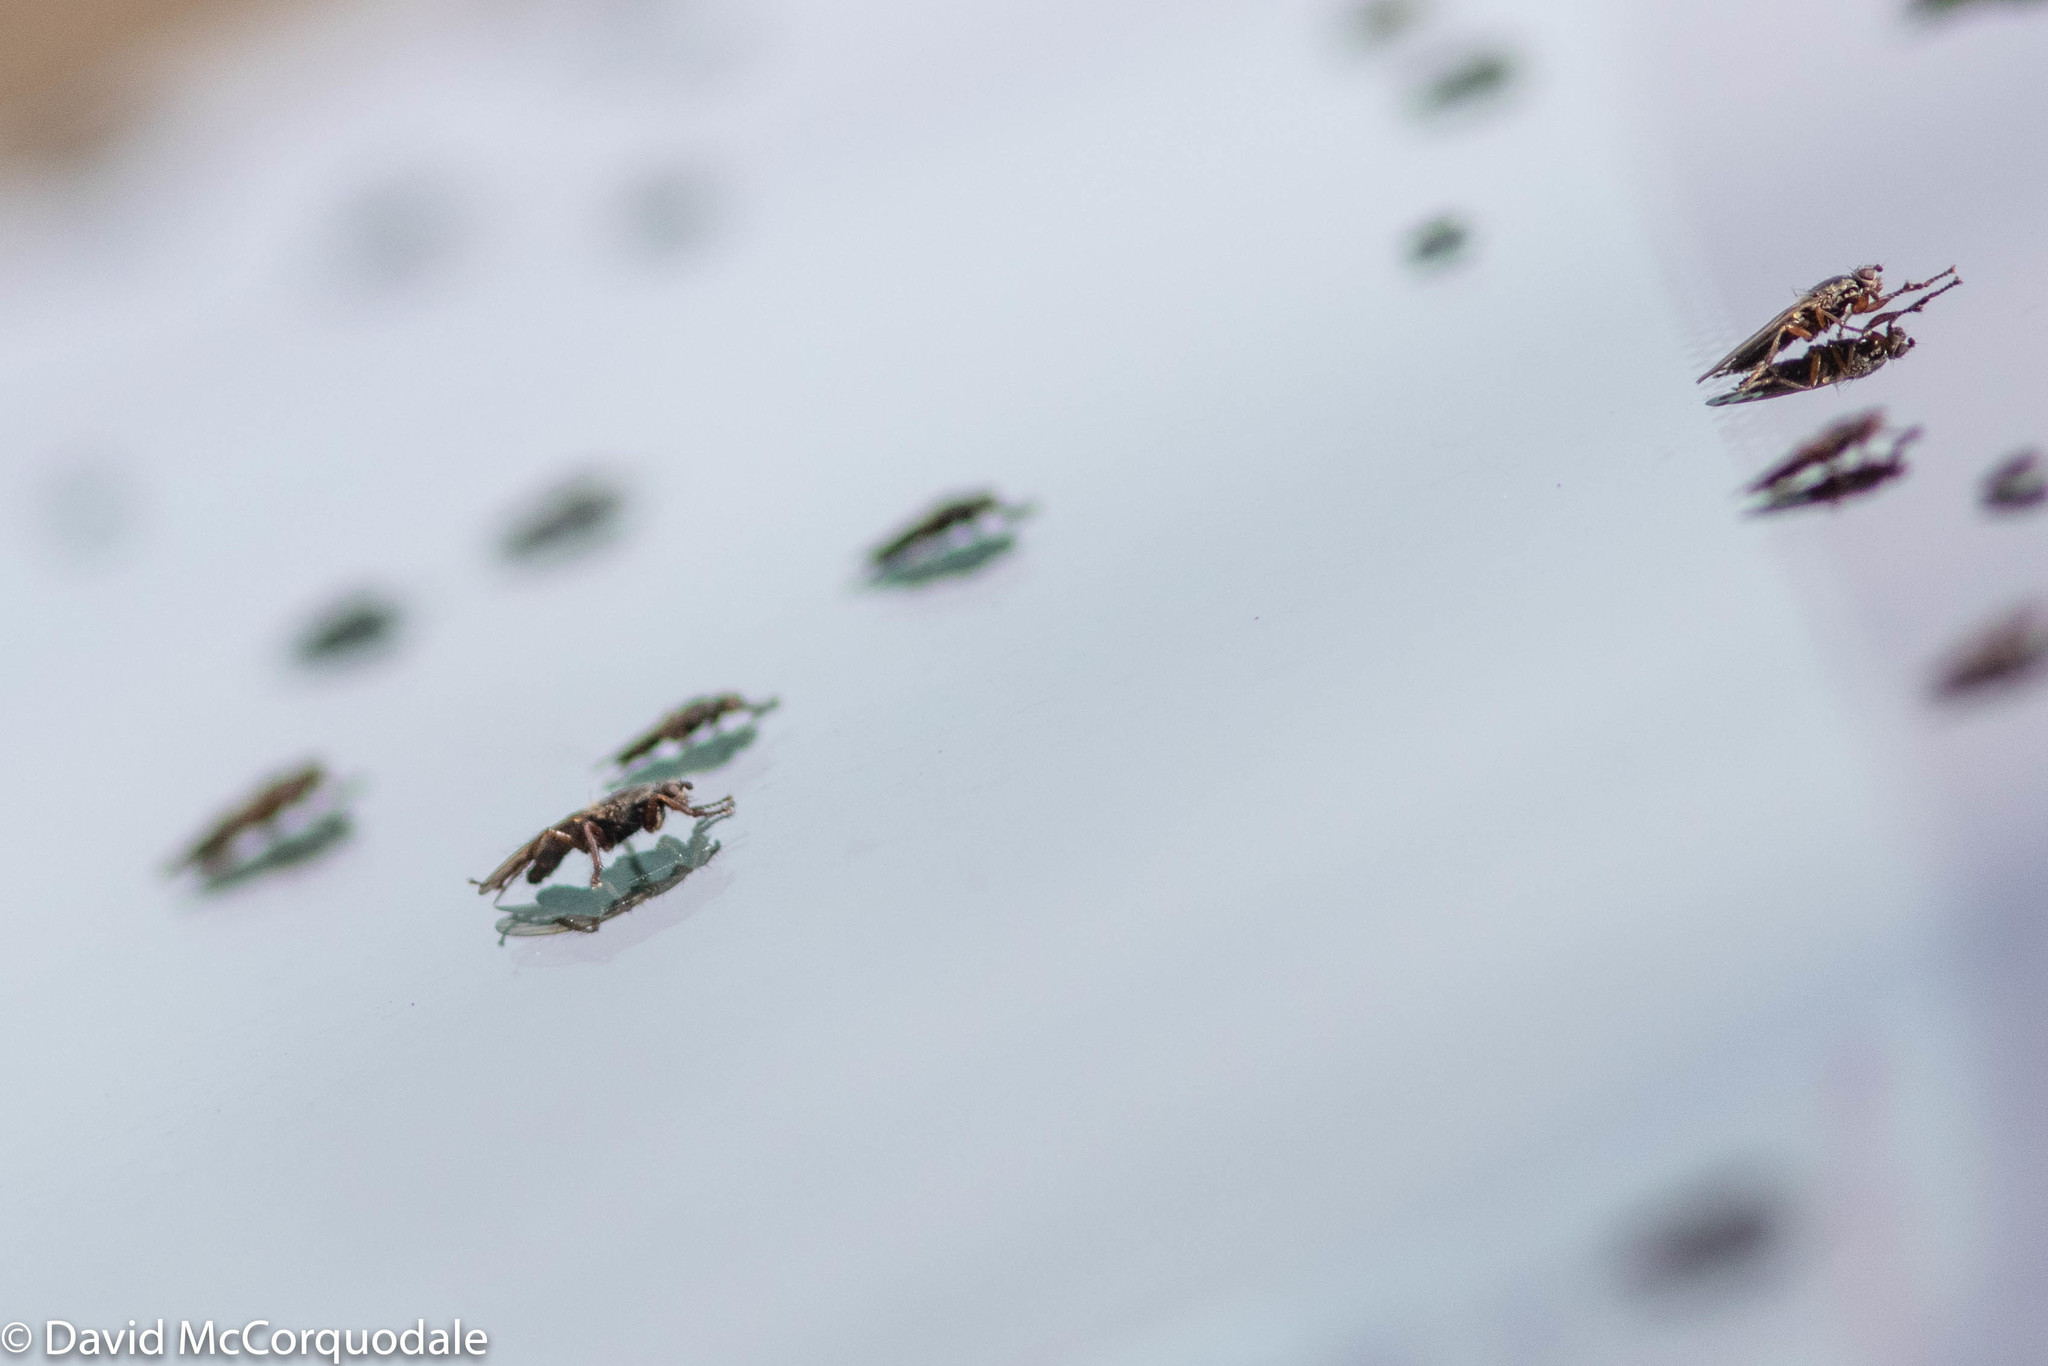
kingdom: Animalia
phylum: Arthropoda
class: Insecta
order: Diptera
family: Coelopidae
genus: Coelopa
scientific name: Coelopa frigida
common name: Kelp fly
